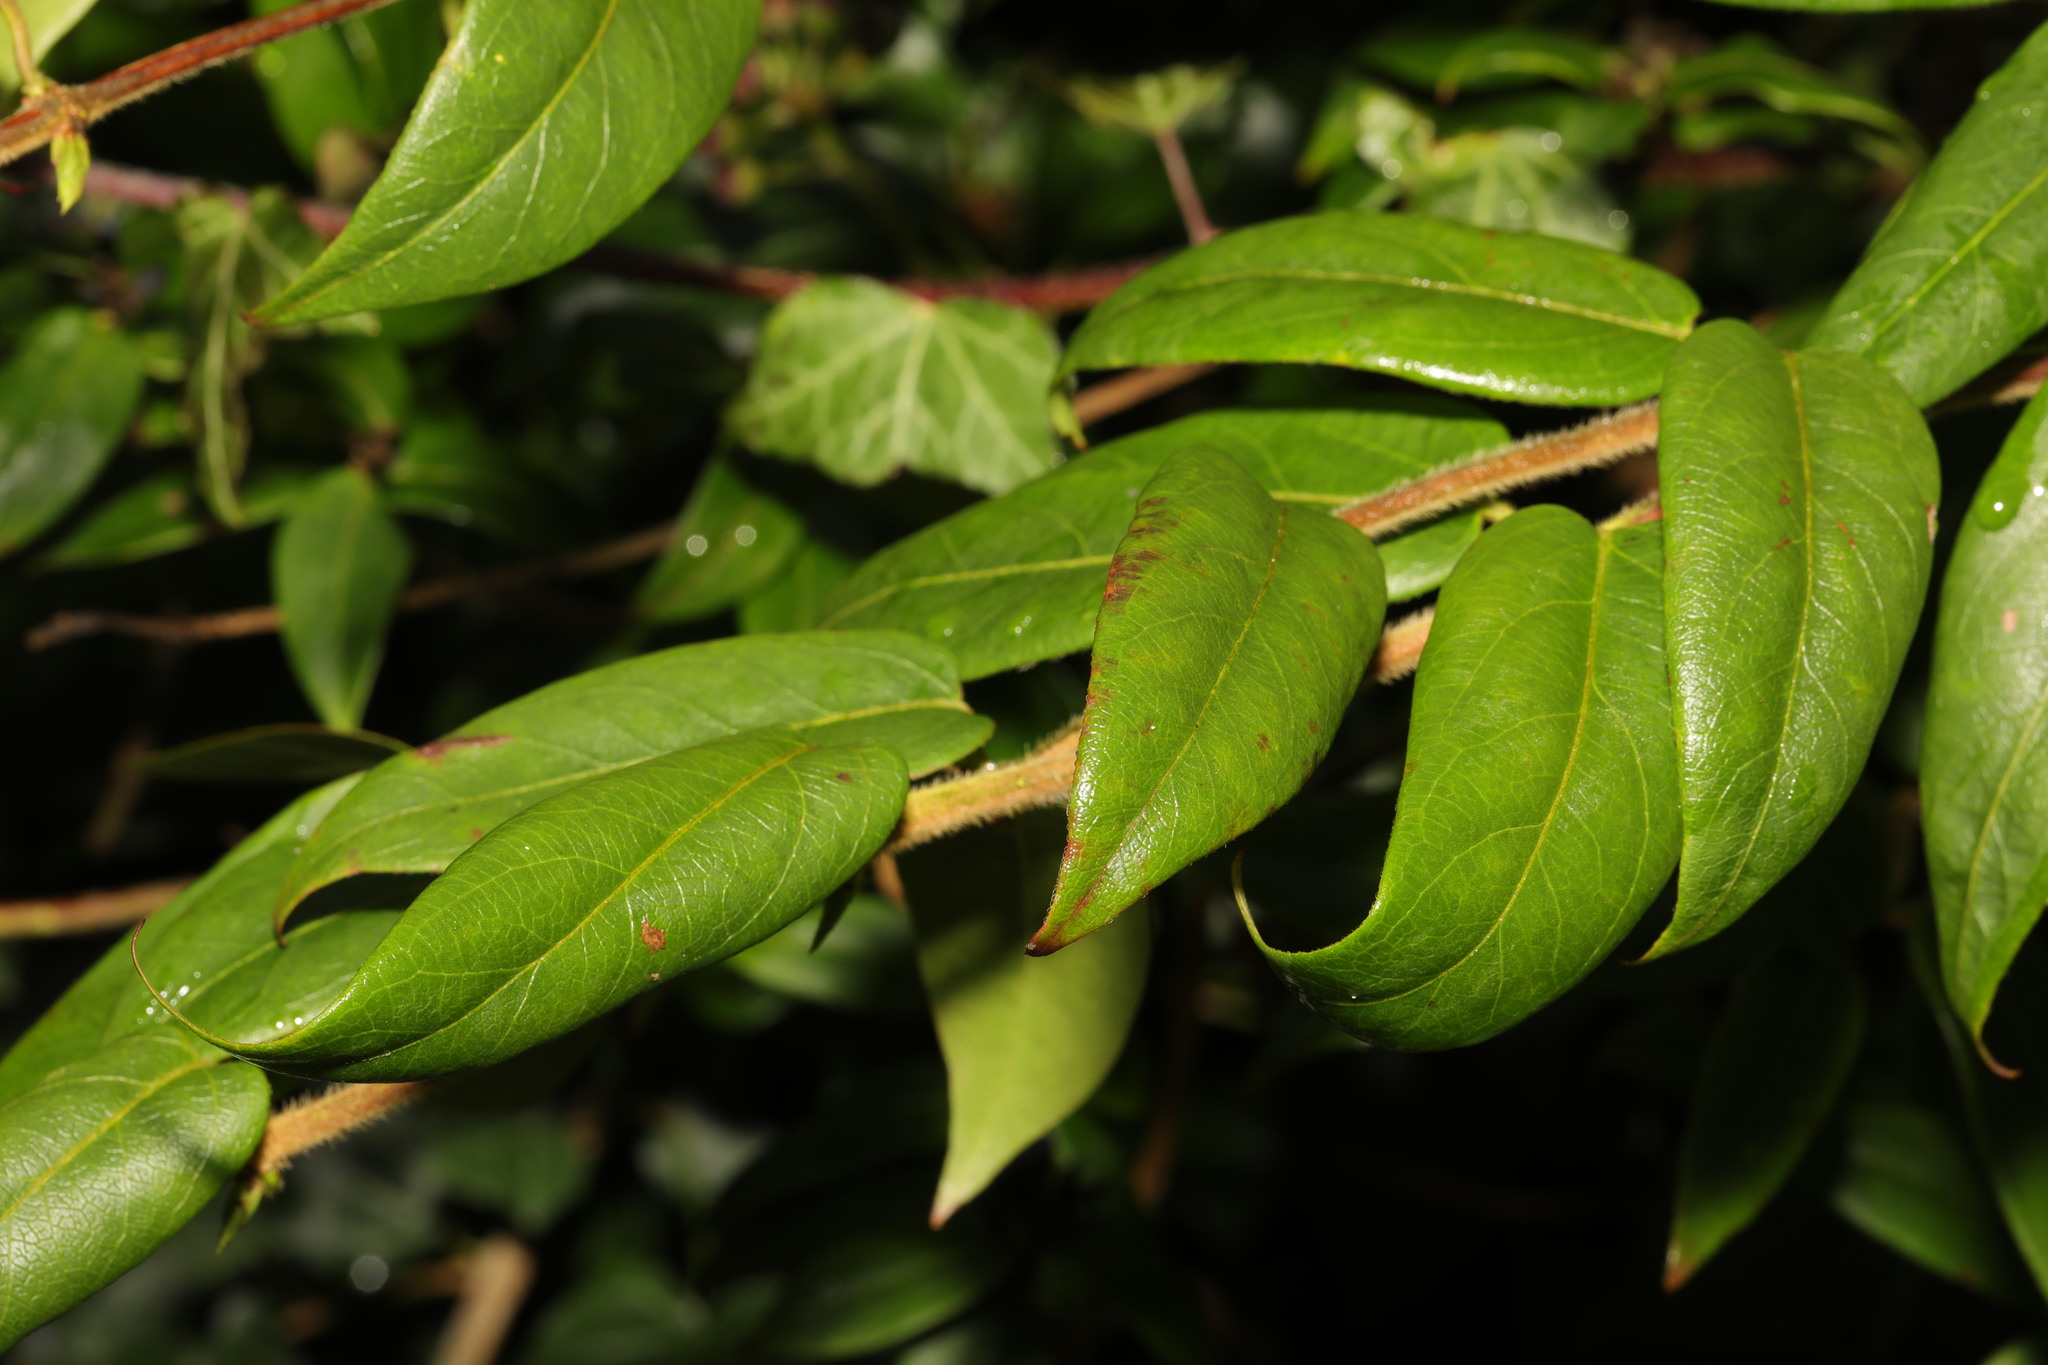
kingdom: Plantae
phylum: Tracheophyta
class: Magnoliopsida
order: Dipsacales
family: Caprifoliaceae
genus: Lonicera
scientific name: Lonicera japonica
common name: Japanese honeysuckle
